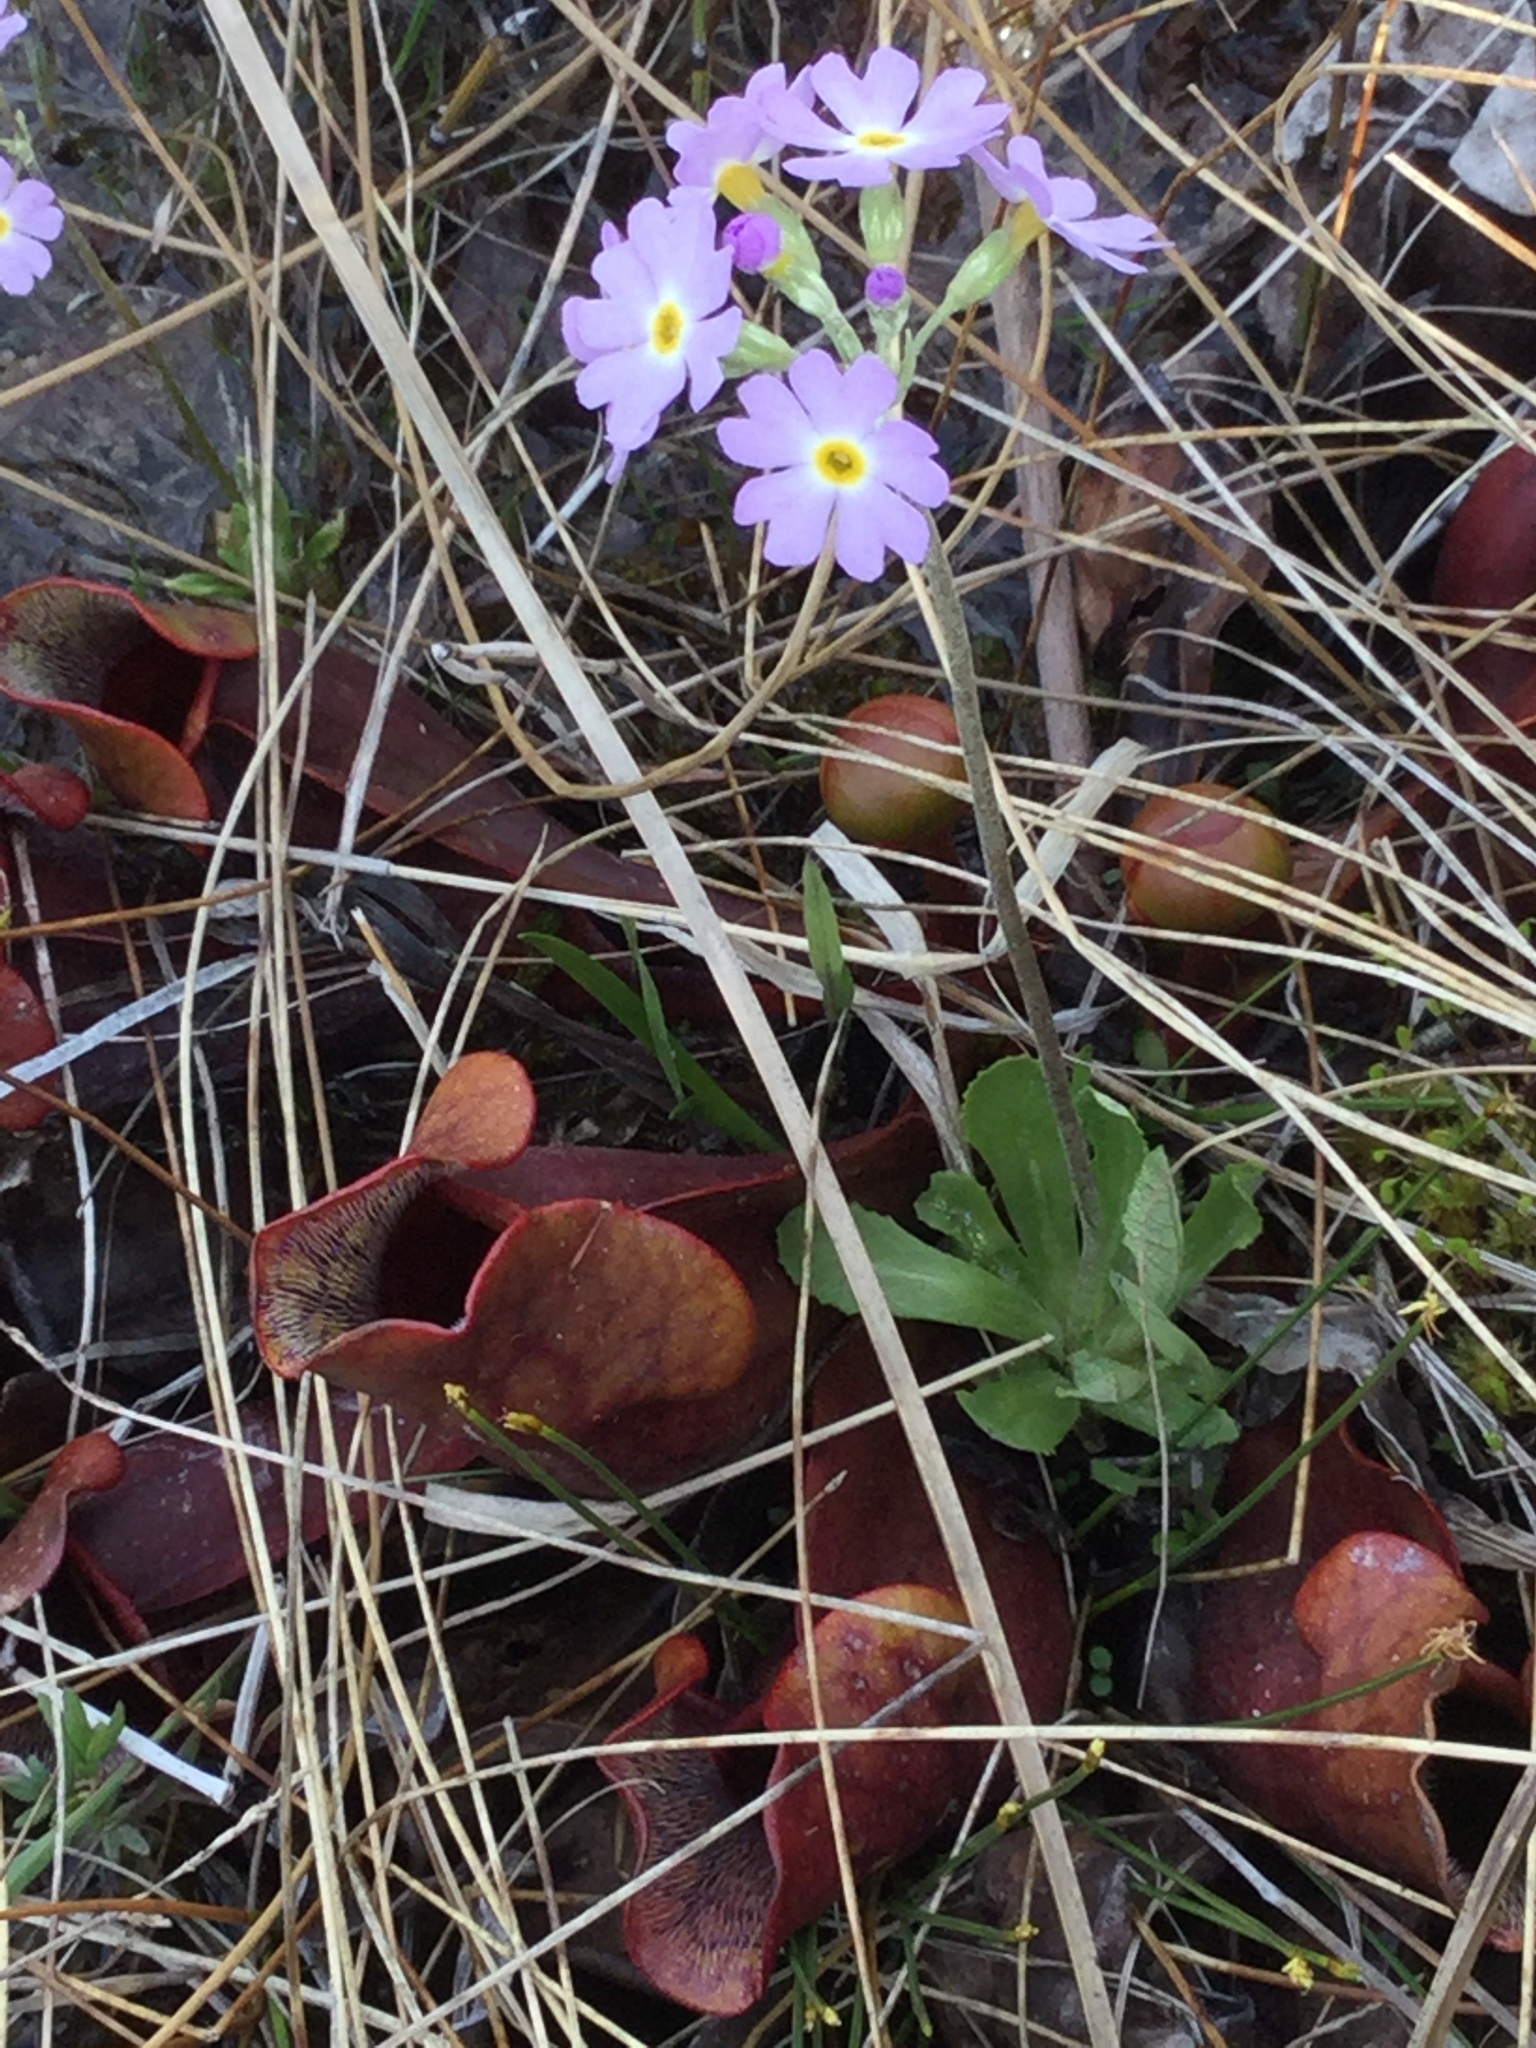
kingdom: Plantae
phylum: Tracheophyta
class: Magnoliopsida
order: Ericales
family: Primulaceae
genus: Primula
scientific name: Primula mistassinica
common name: Bird's-eye primrose
